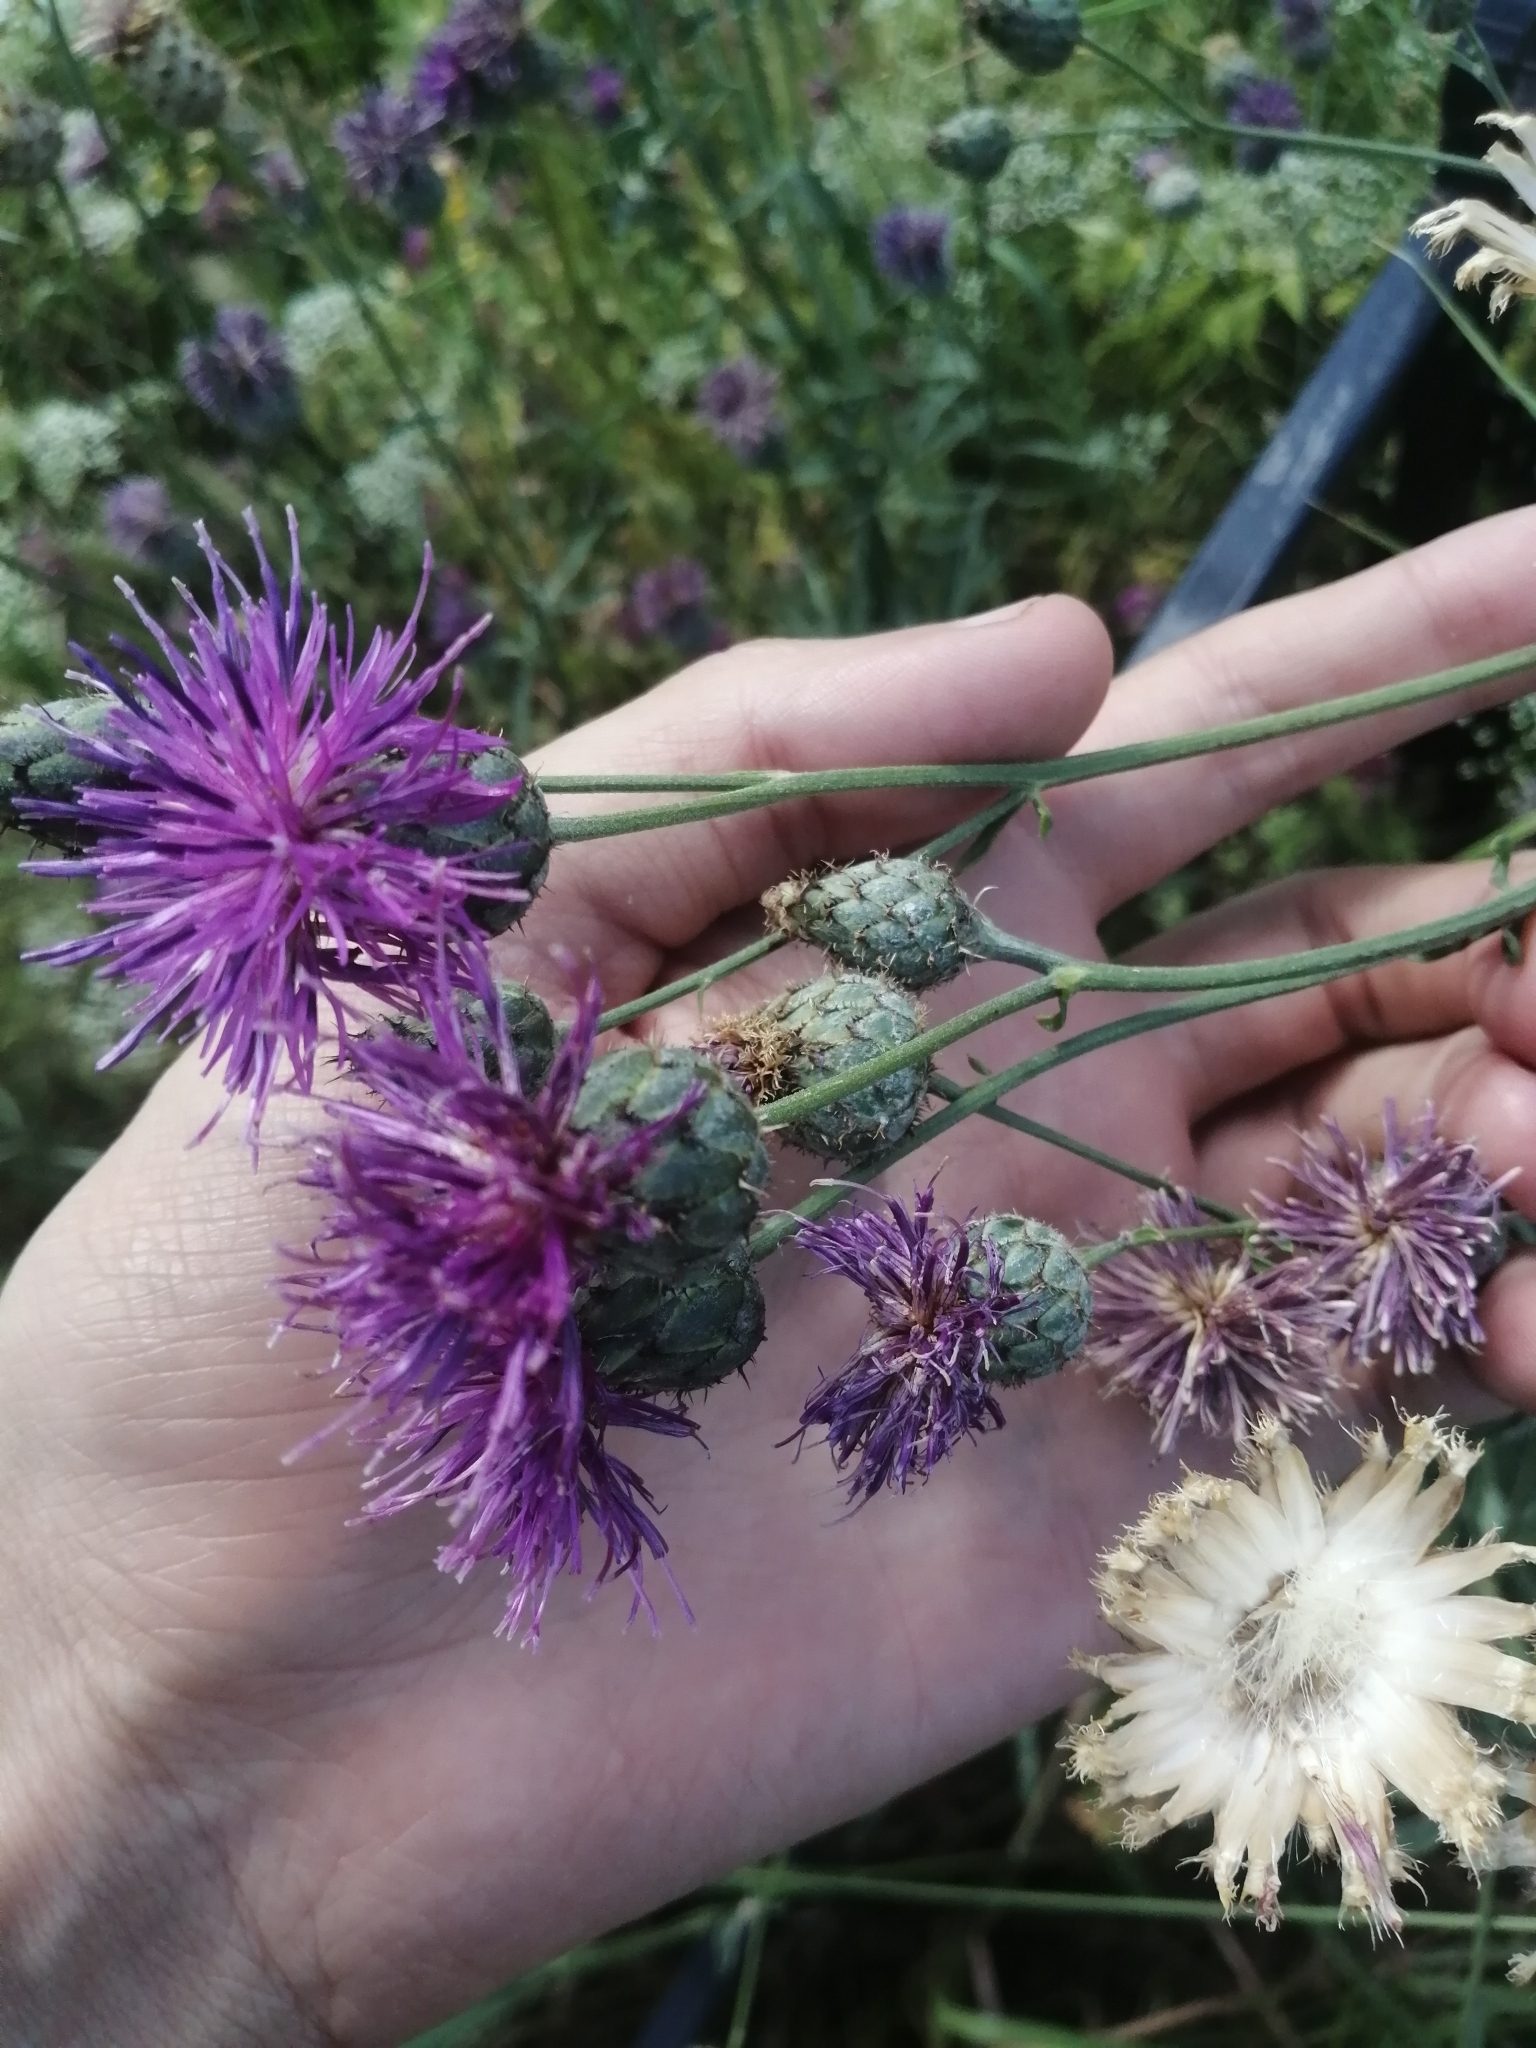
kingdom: Plantae
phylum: Tracheophyta
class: Magnoliopsida
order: Asterales
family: Asteraceae
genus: Centaurea
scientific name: Centaurea apiculata
